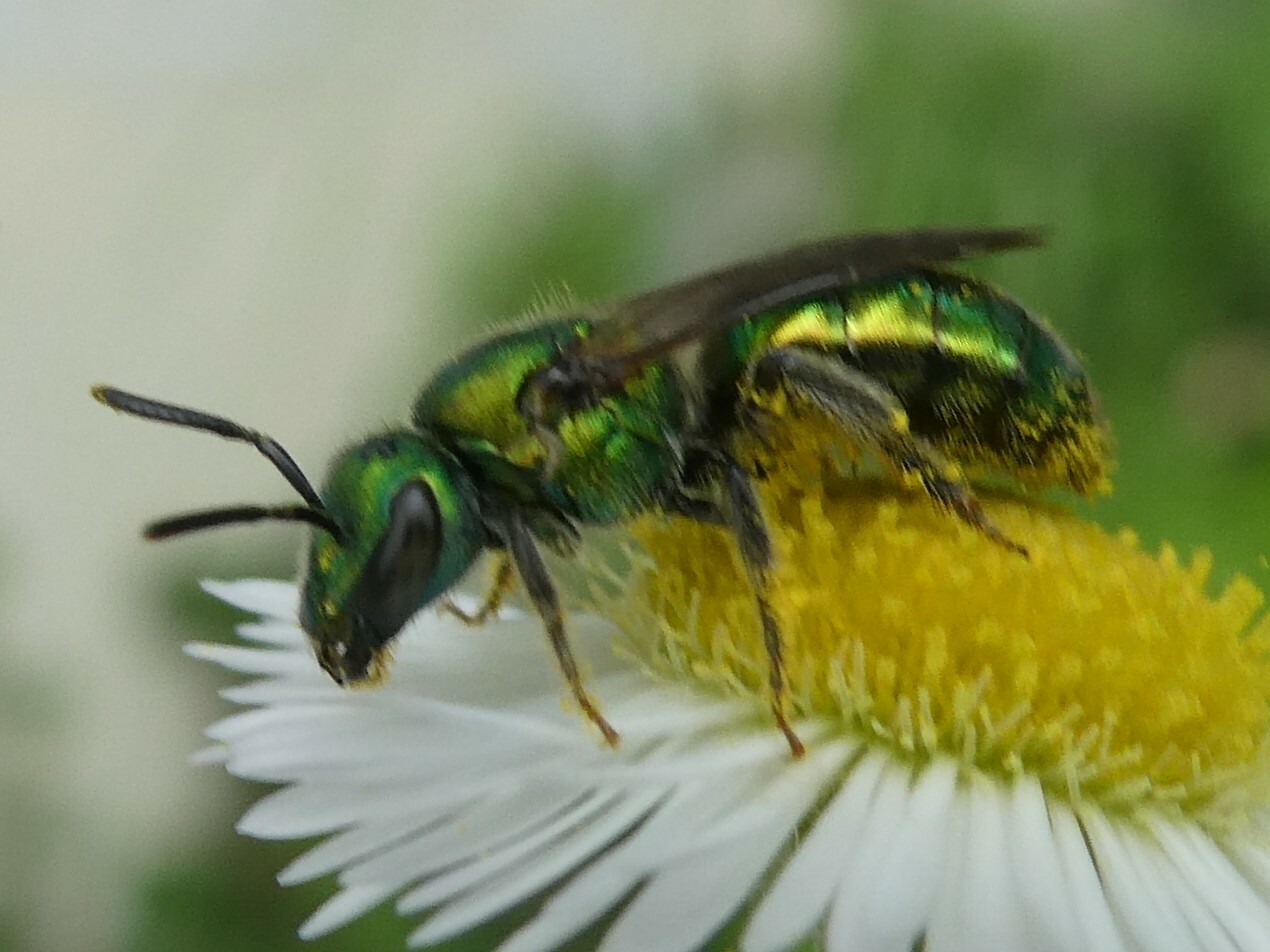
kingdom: Animalia
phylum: Arthropoda
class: Insecta
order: Hymenoptera
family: Halictidae
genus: Augochlora
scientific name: Augochlora pura
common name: Pure green sweat bee
